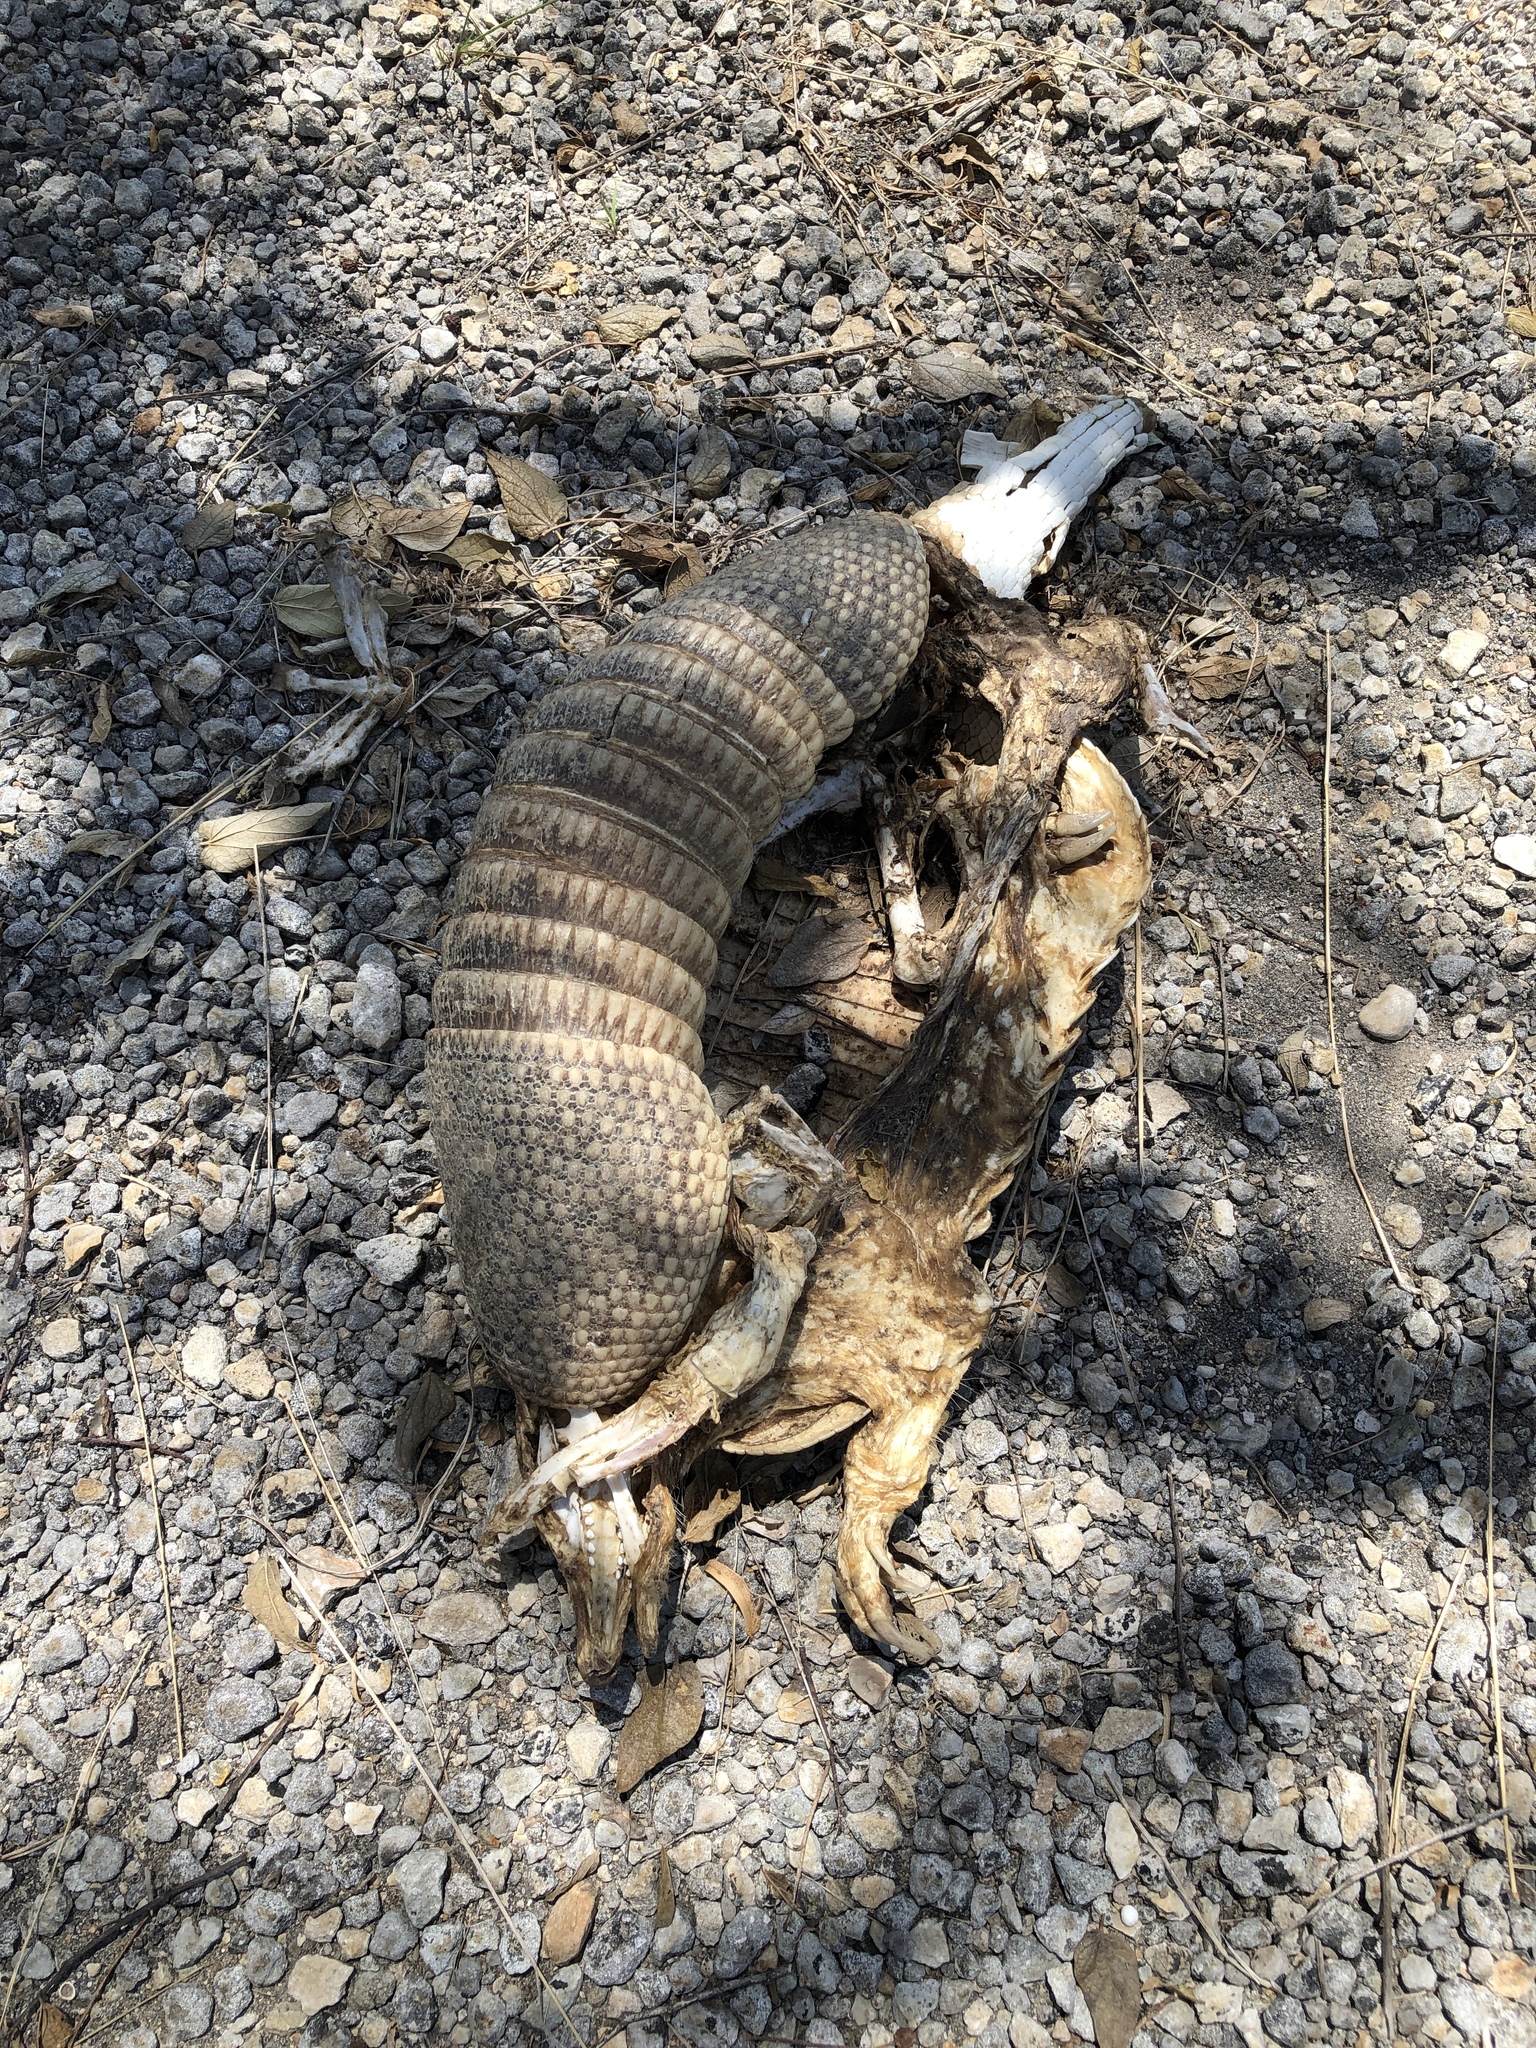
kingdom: Animalia
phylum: Chordata
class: Mammalia
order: Cingulata
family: Dasypodidae
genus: Dasypus
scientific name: Dasypus novemcinctus
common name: Nine-banded armadillo
